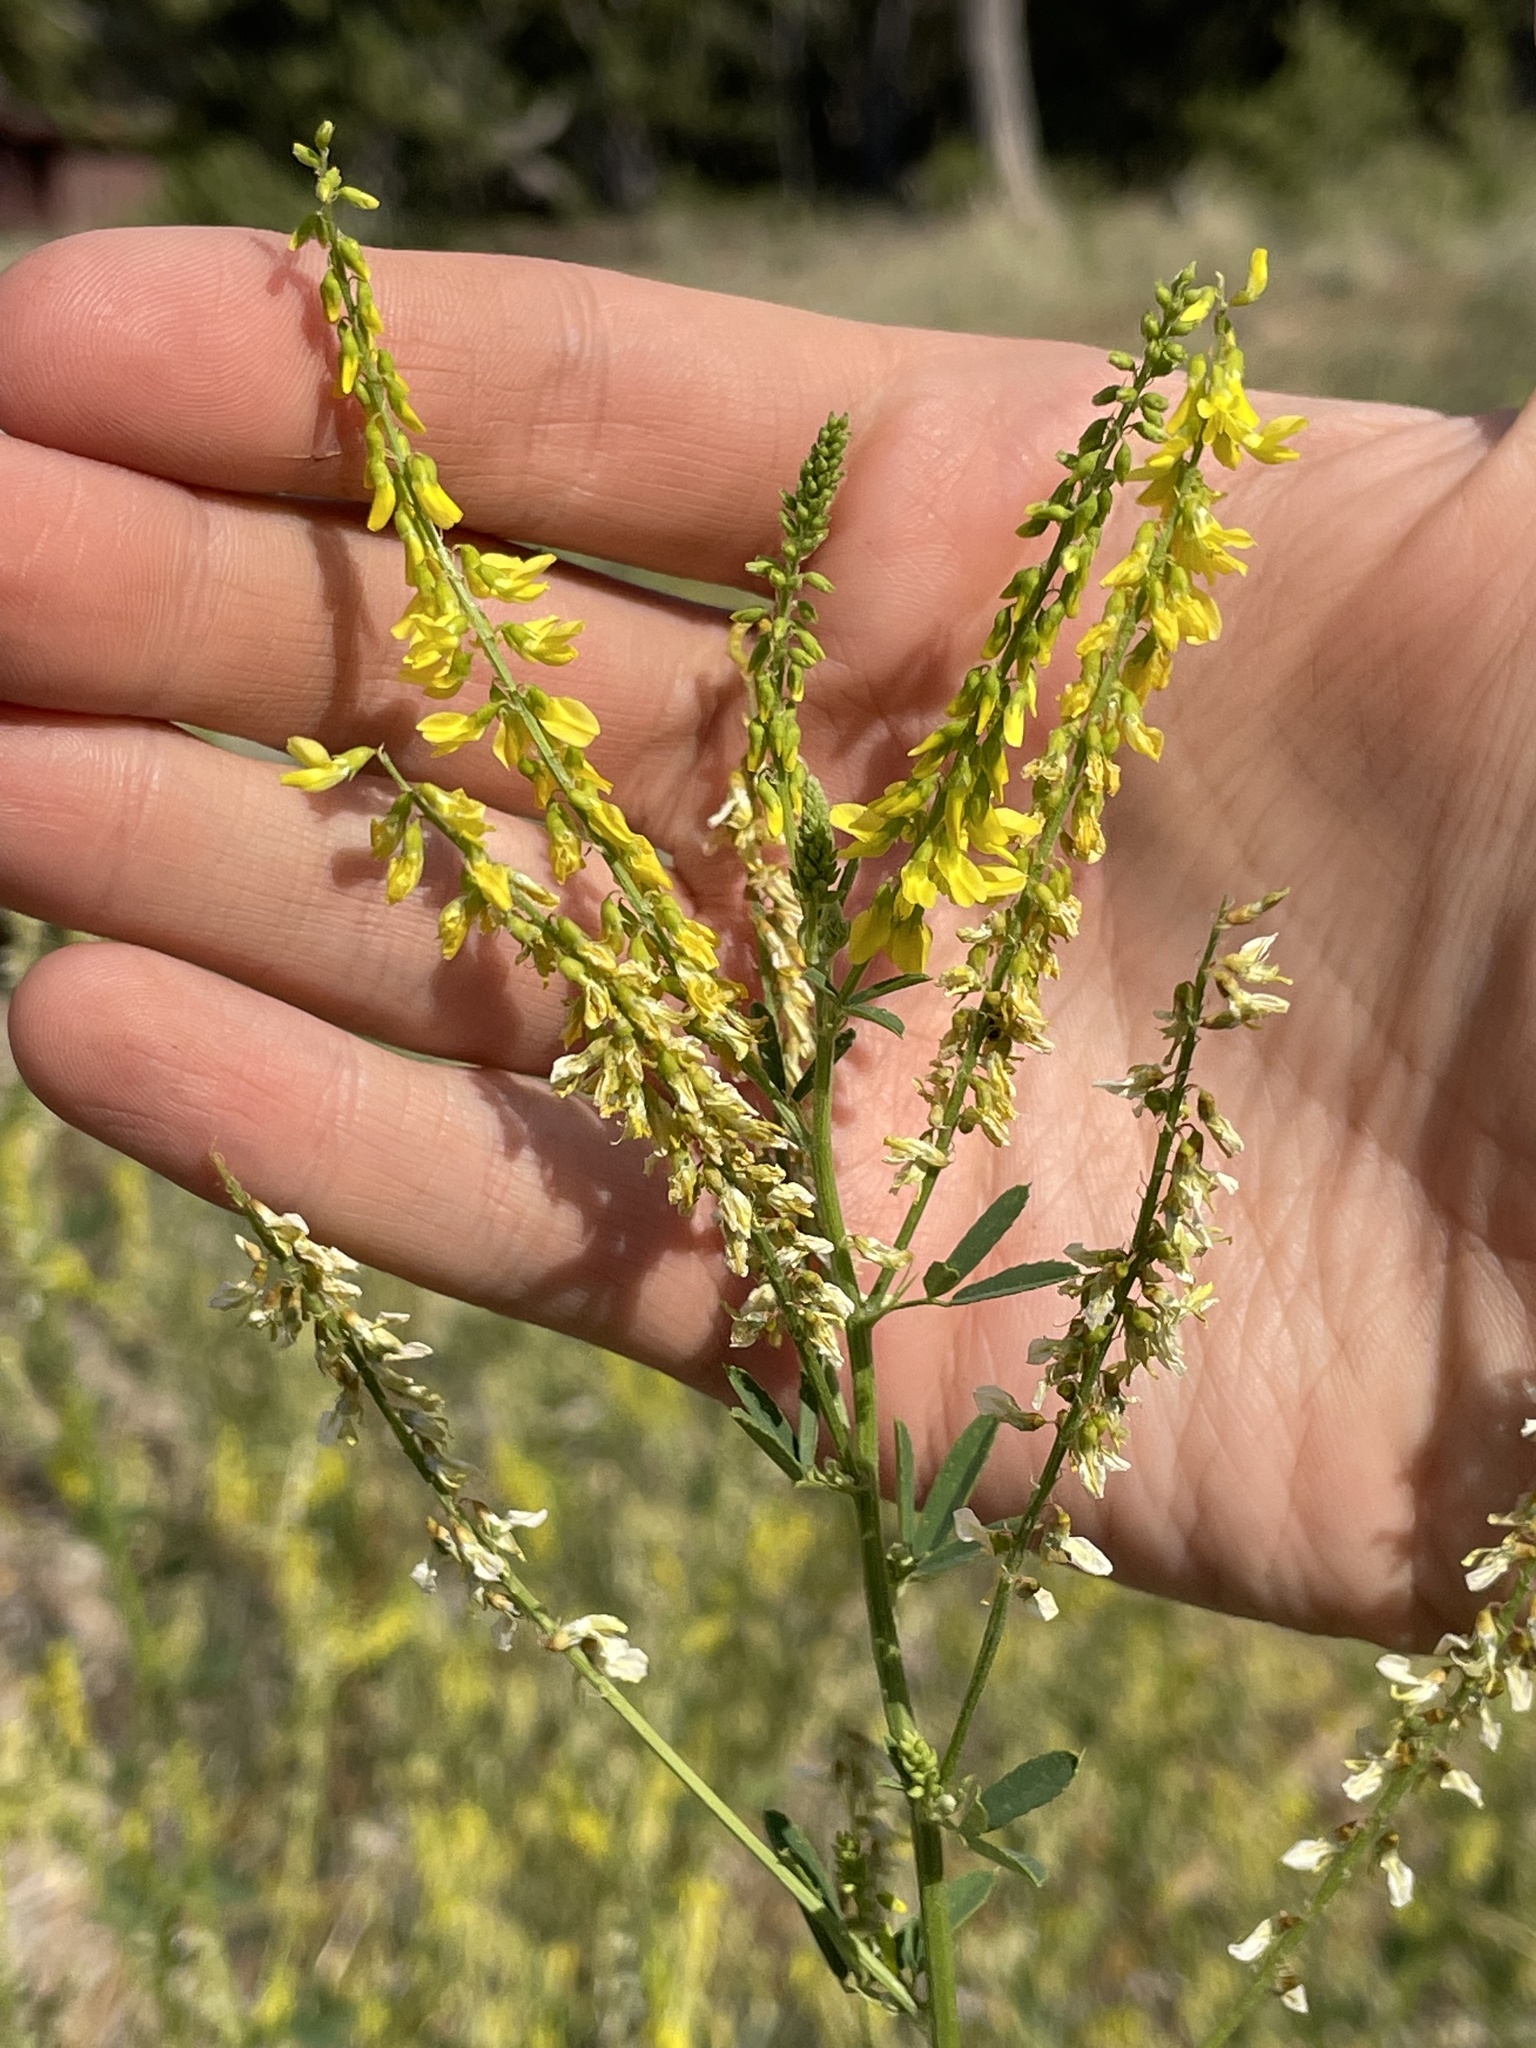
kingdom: Plantae
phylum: Tracheophyta
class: Magnoliopsida
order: Fabales
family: Fabaceae
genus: Melilotus
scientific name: Melilotus officinalis
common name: Sweetclover
